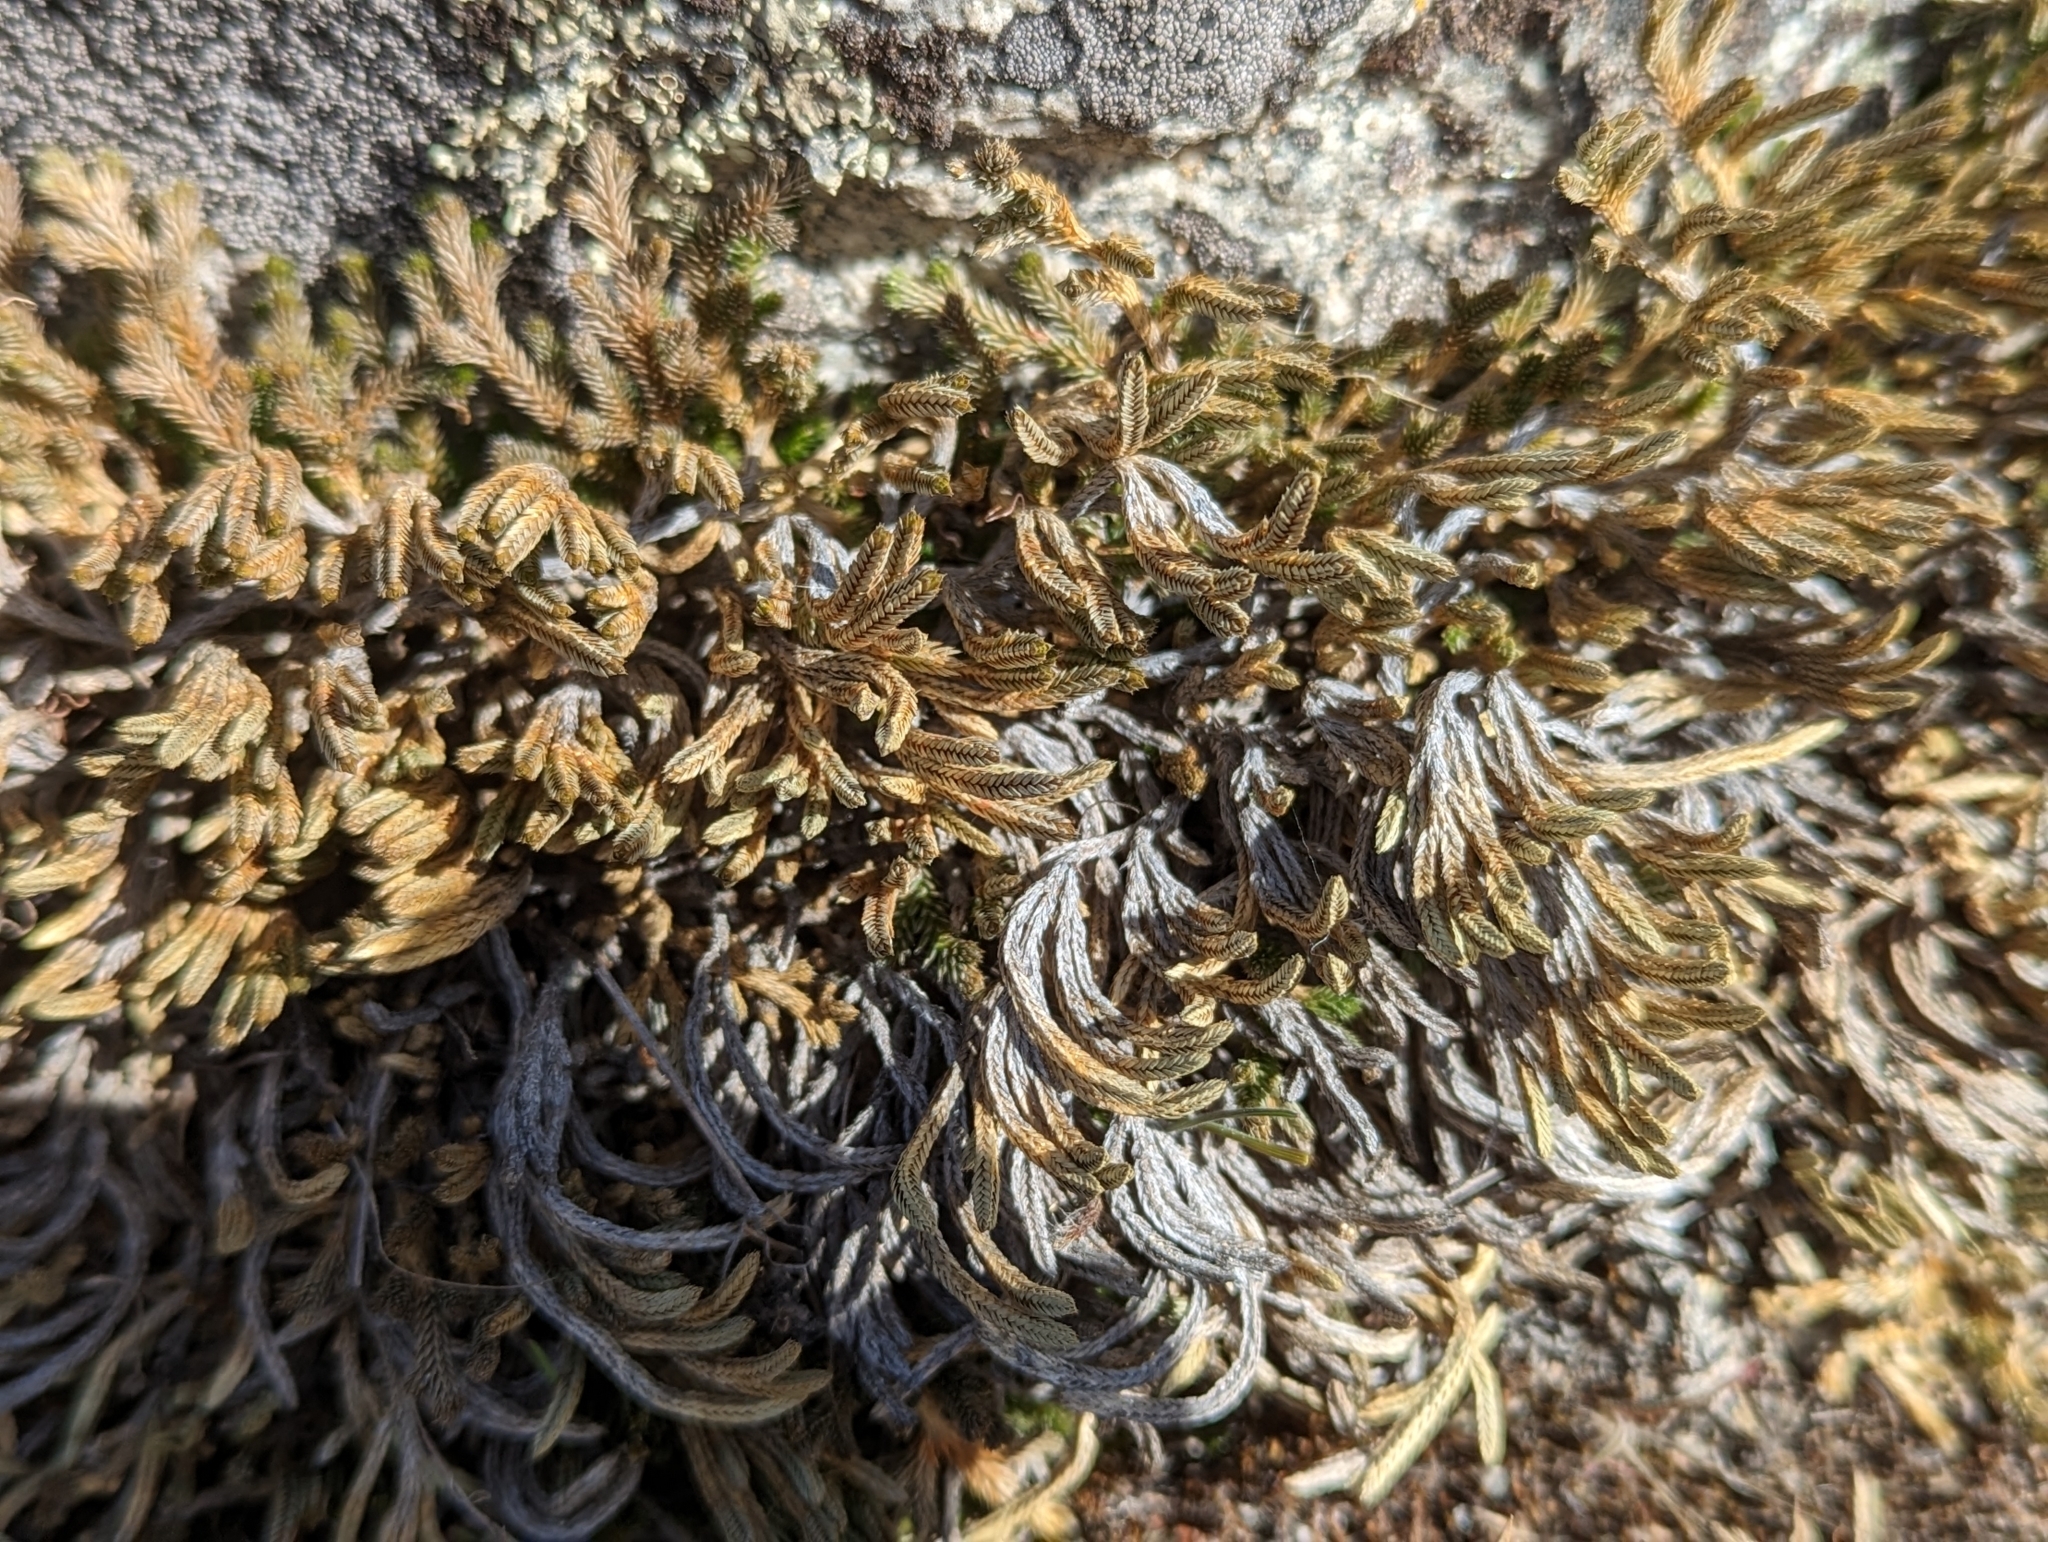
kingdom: Plantae
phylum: Tracheophyta
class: Lycopodiopsida
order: Selaginellales
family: Selaginellaceae
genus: Selaginella
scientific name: Selaginella wallacei
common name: Wallace's selaginella
